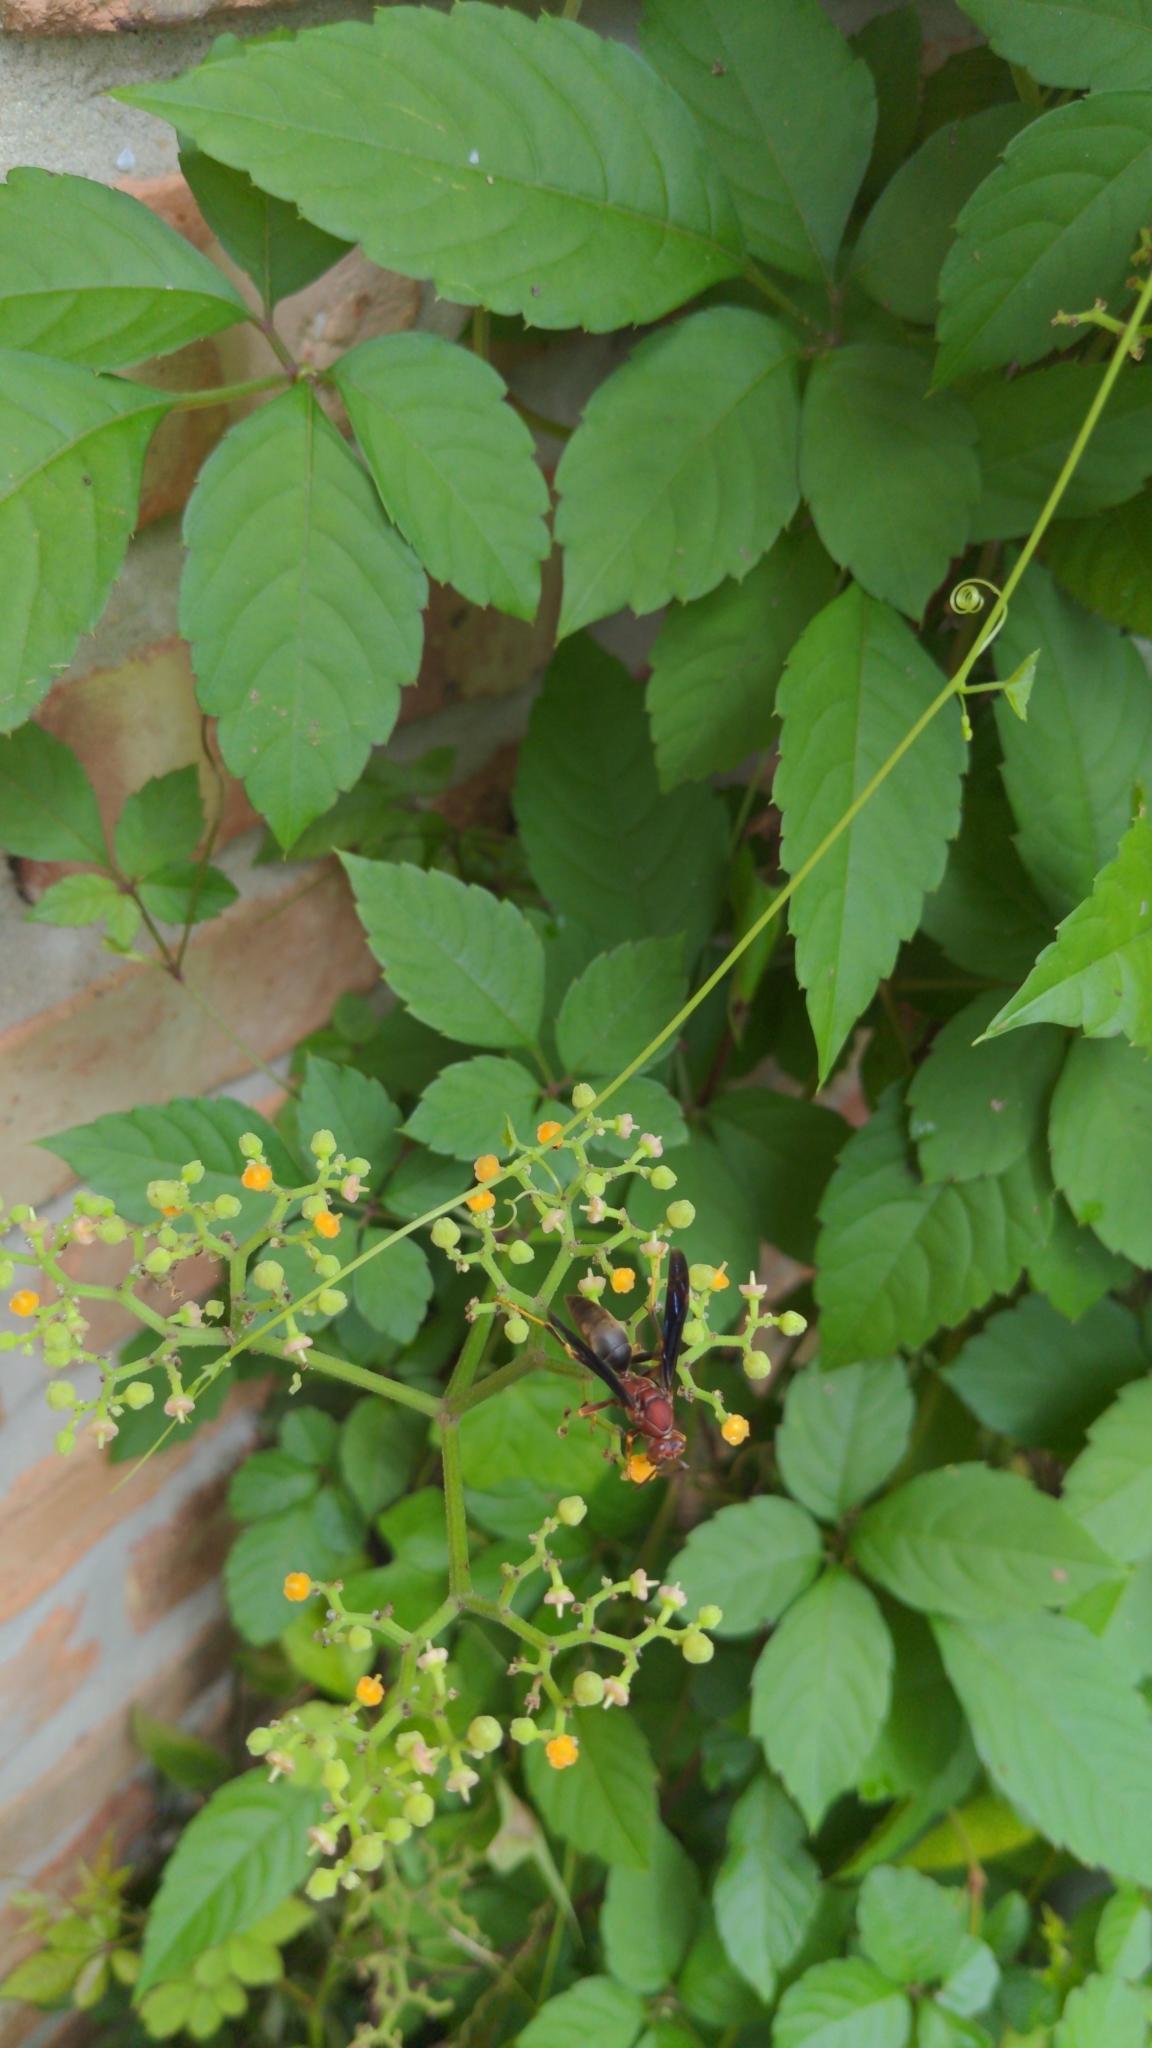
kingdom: Animalia
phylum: Arthropoda
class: Insecta
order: Hymenoptera
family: Eumenidae
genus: Polistes
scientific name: Polistes metricus
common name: Metric paper wasp
